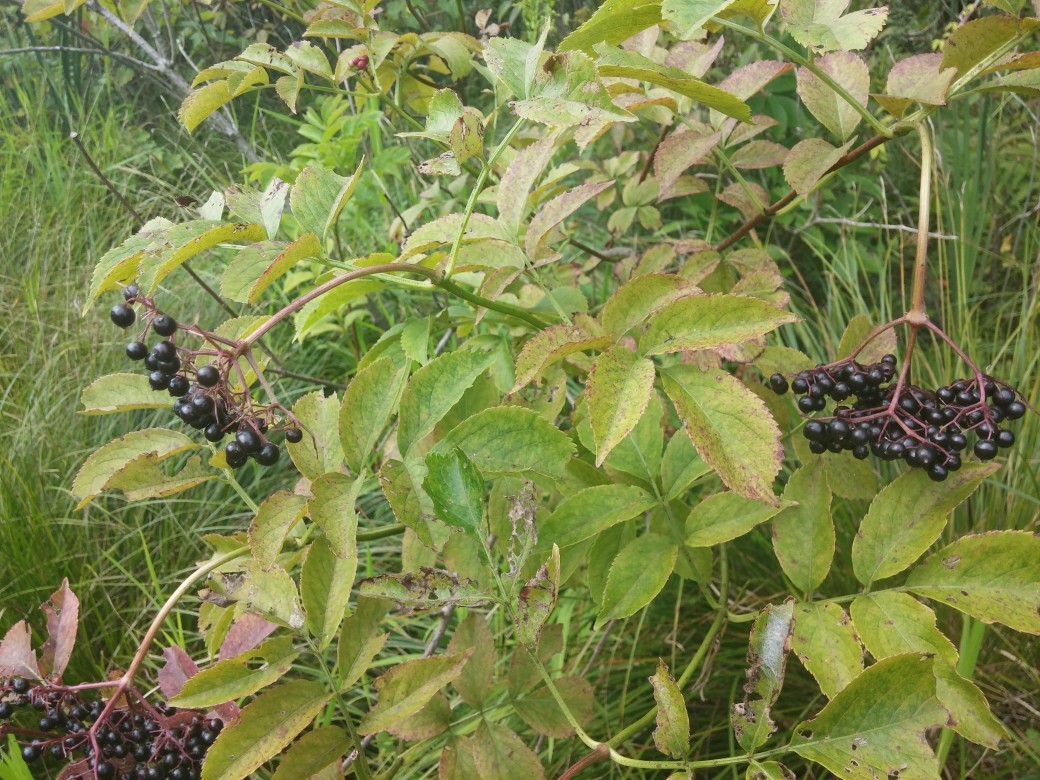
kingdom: Plantae
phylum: Tracheophyta
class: Magnoliopsida
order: Dipsacales
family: Viburnaceae
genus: Sambucus
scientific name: Sambucus canadensis
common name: American elder
